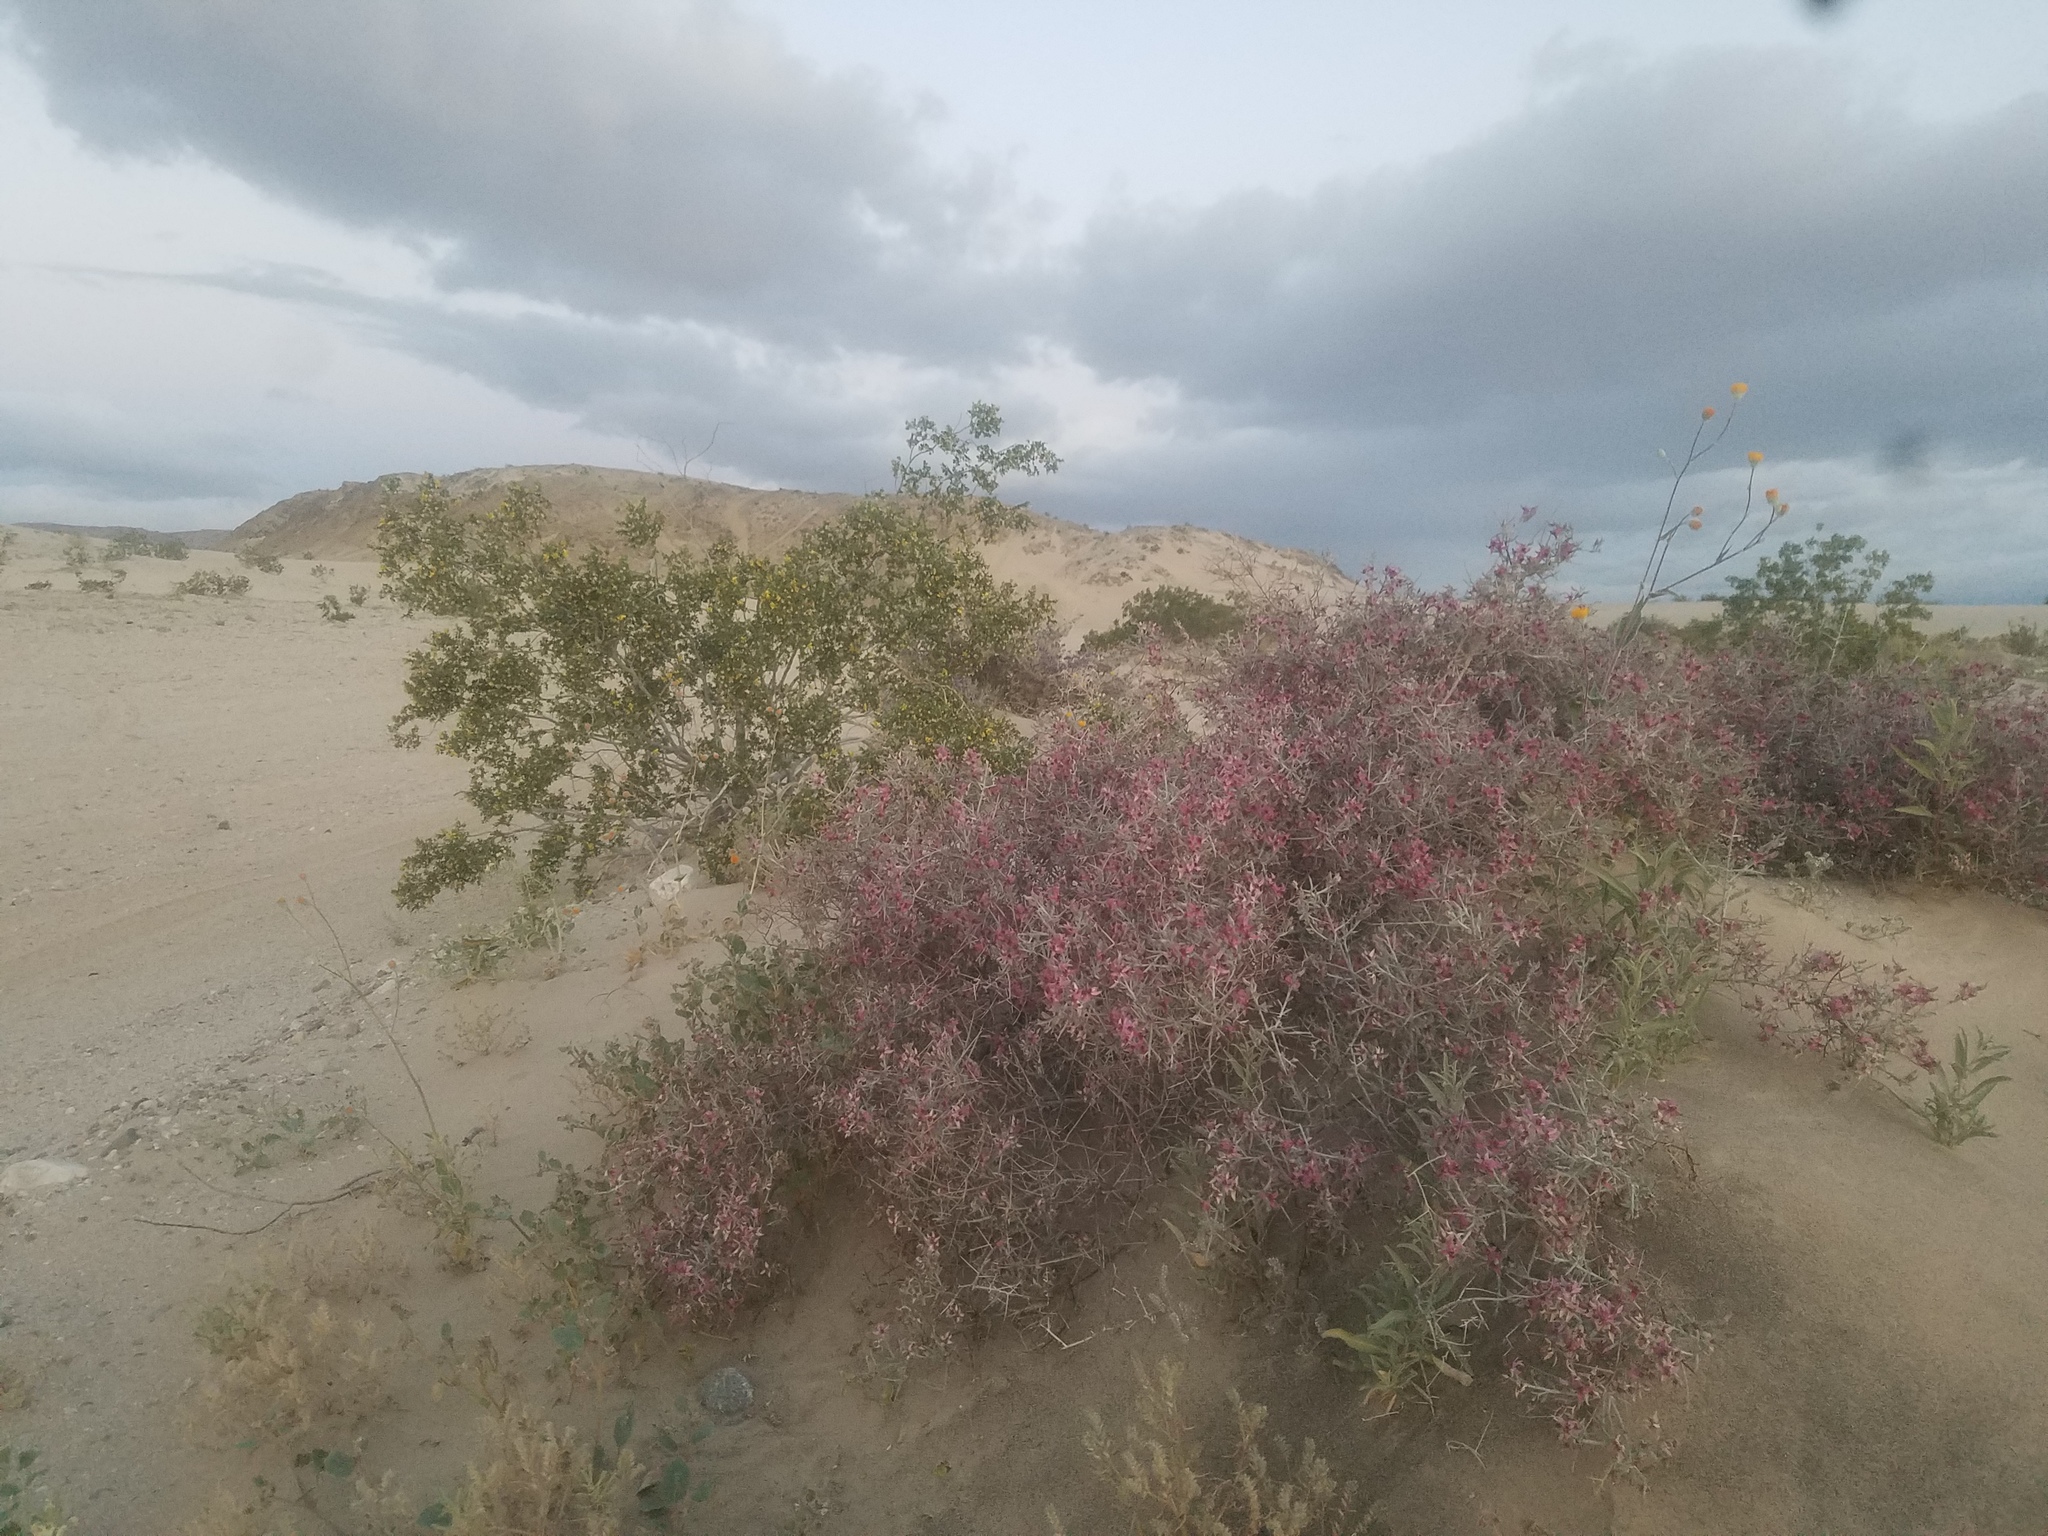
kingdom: Plantae
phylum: Tracheophyta
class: Magnoliopsida
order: Zygophyllales
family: Krameriaceae
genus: Krameria
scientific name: Krameria bicolor
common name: White ratany
